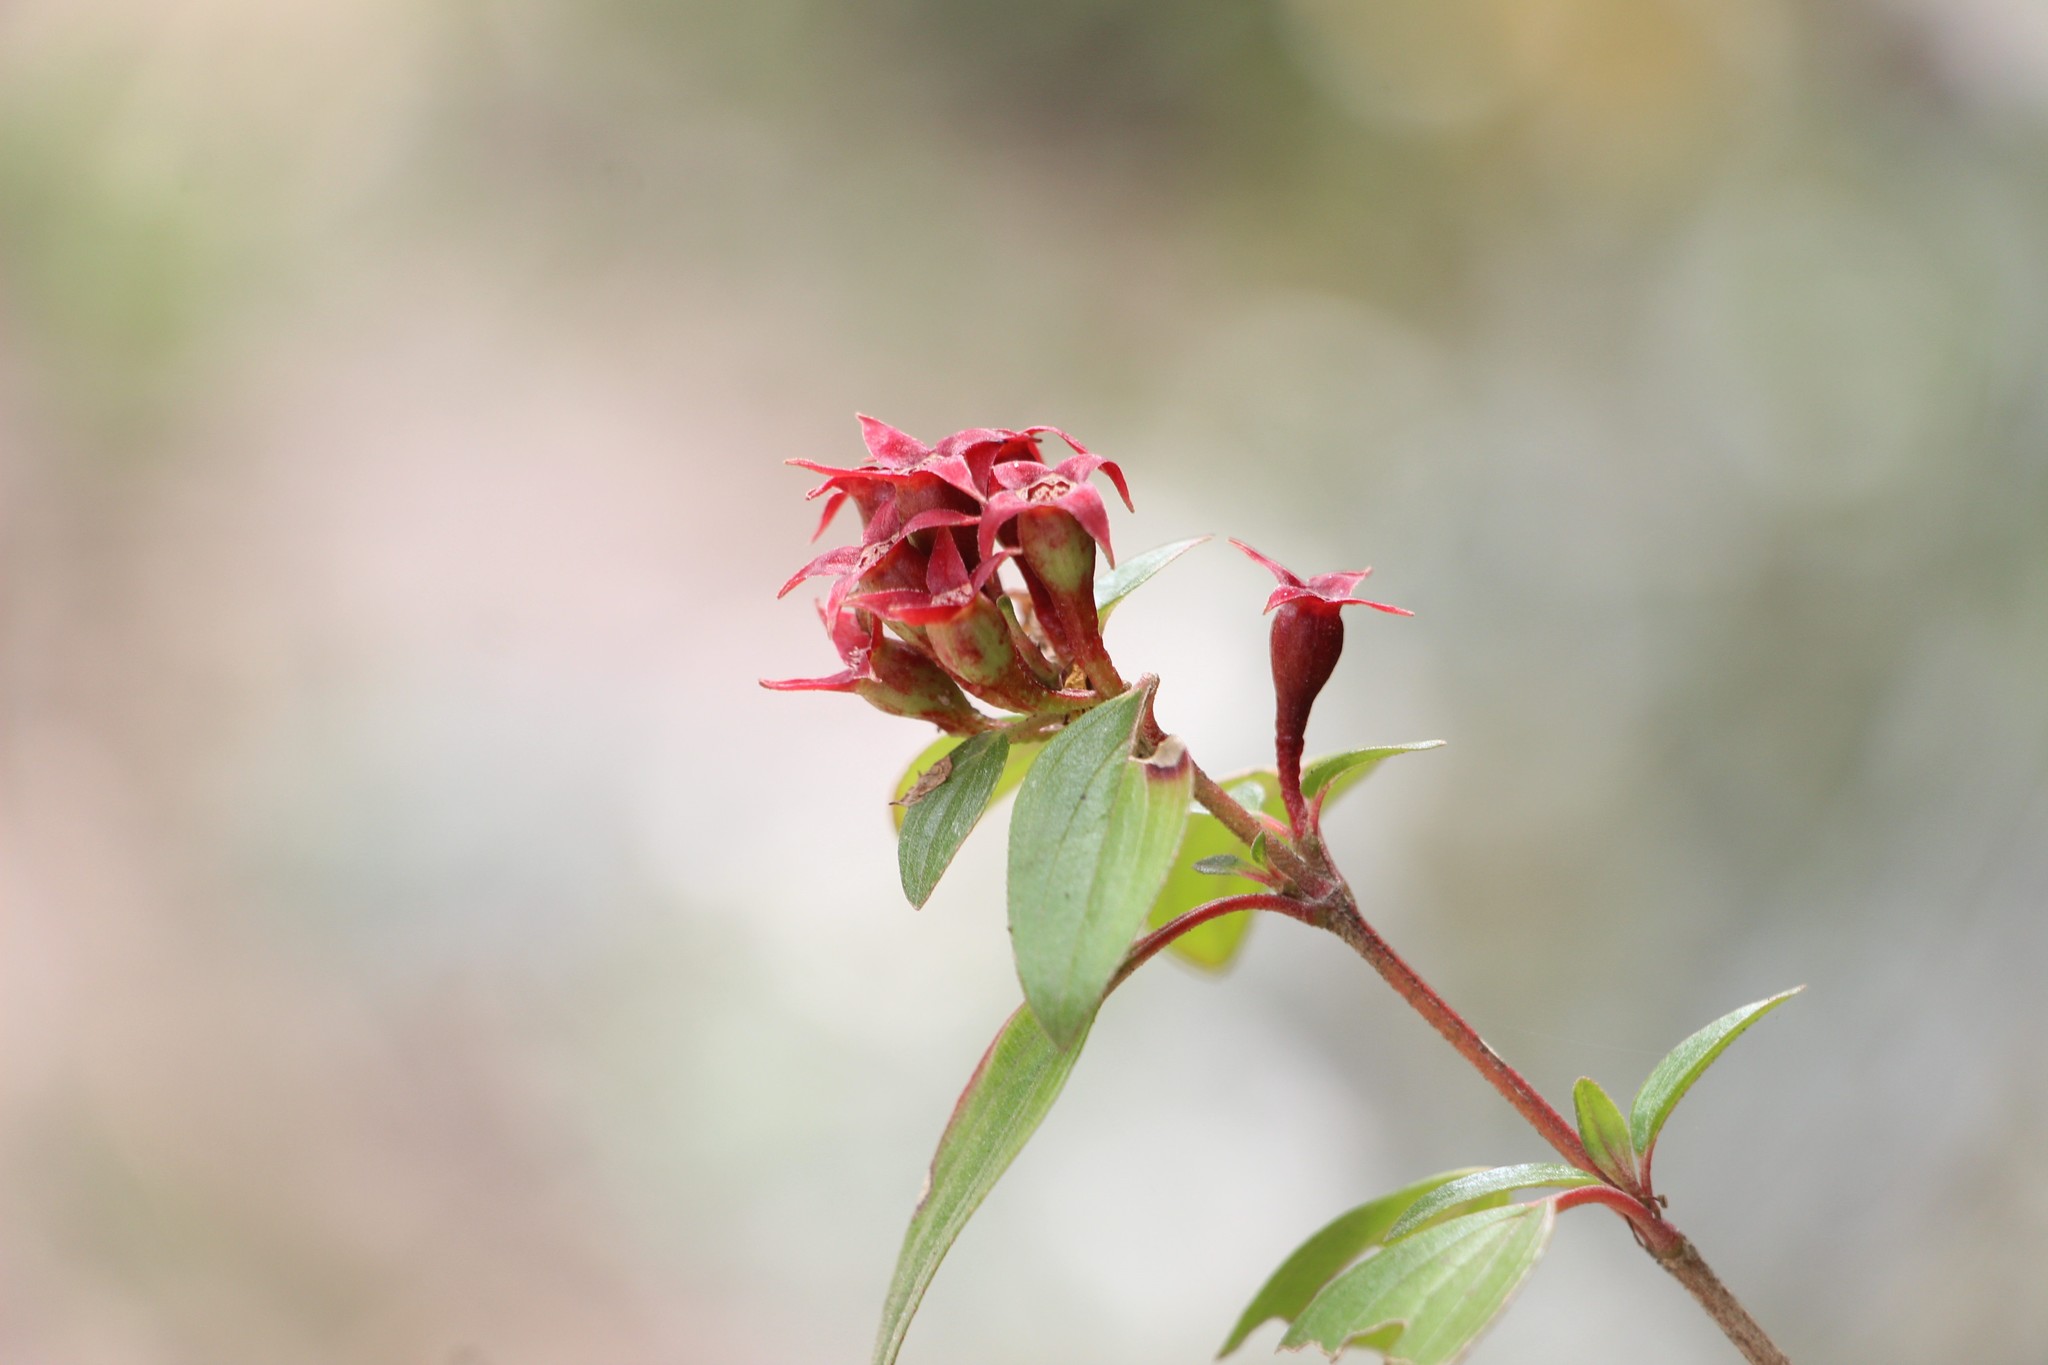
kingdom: Plantae
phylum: Tracheophyta
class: Magnoliopsida
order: Myrtales
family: Melastomataceae
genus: Monochaetum
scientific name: Monochaetum myrtoideum
